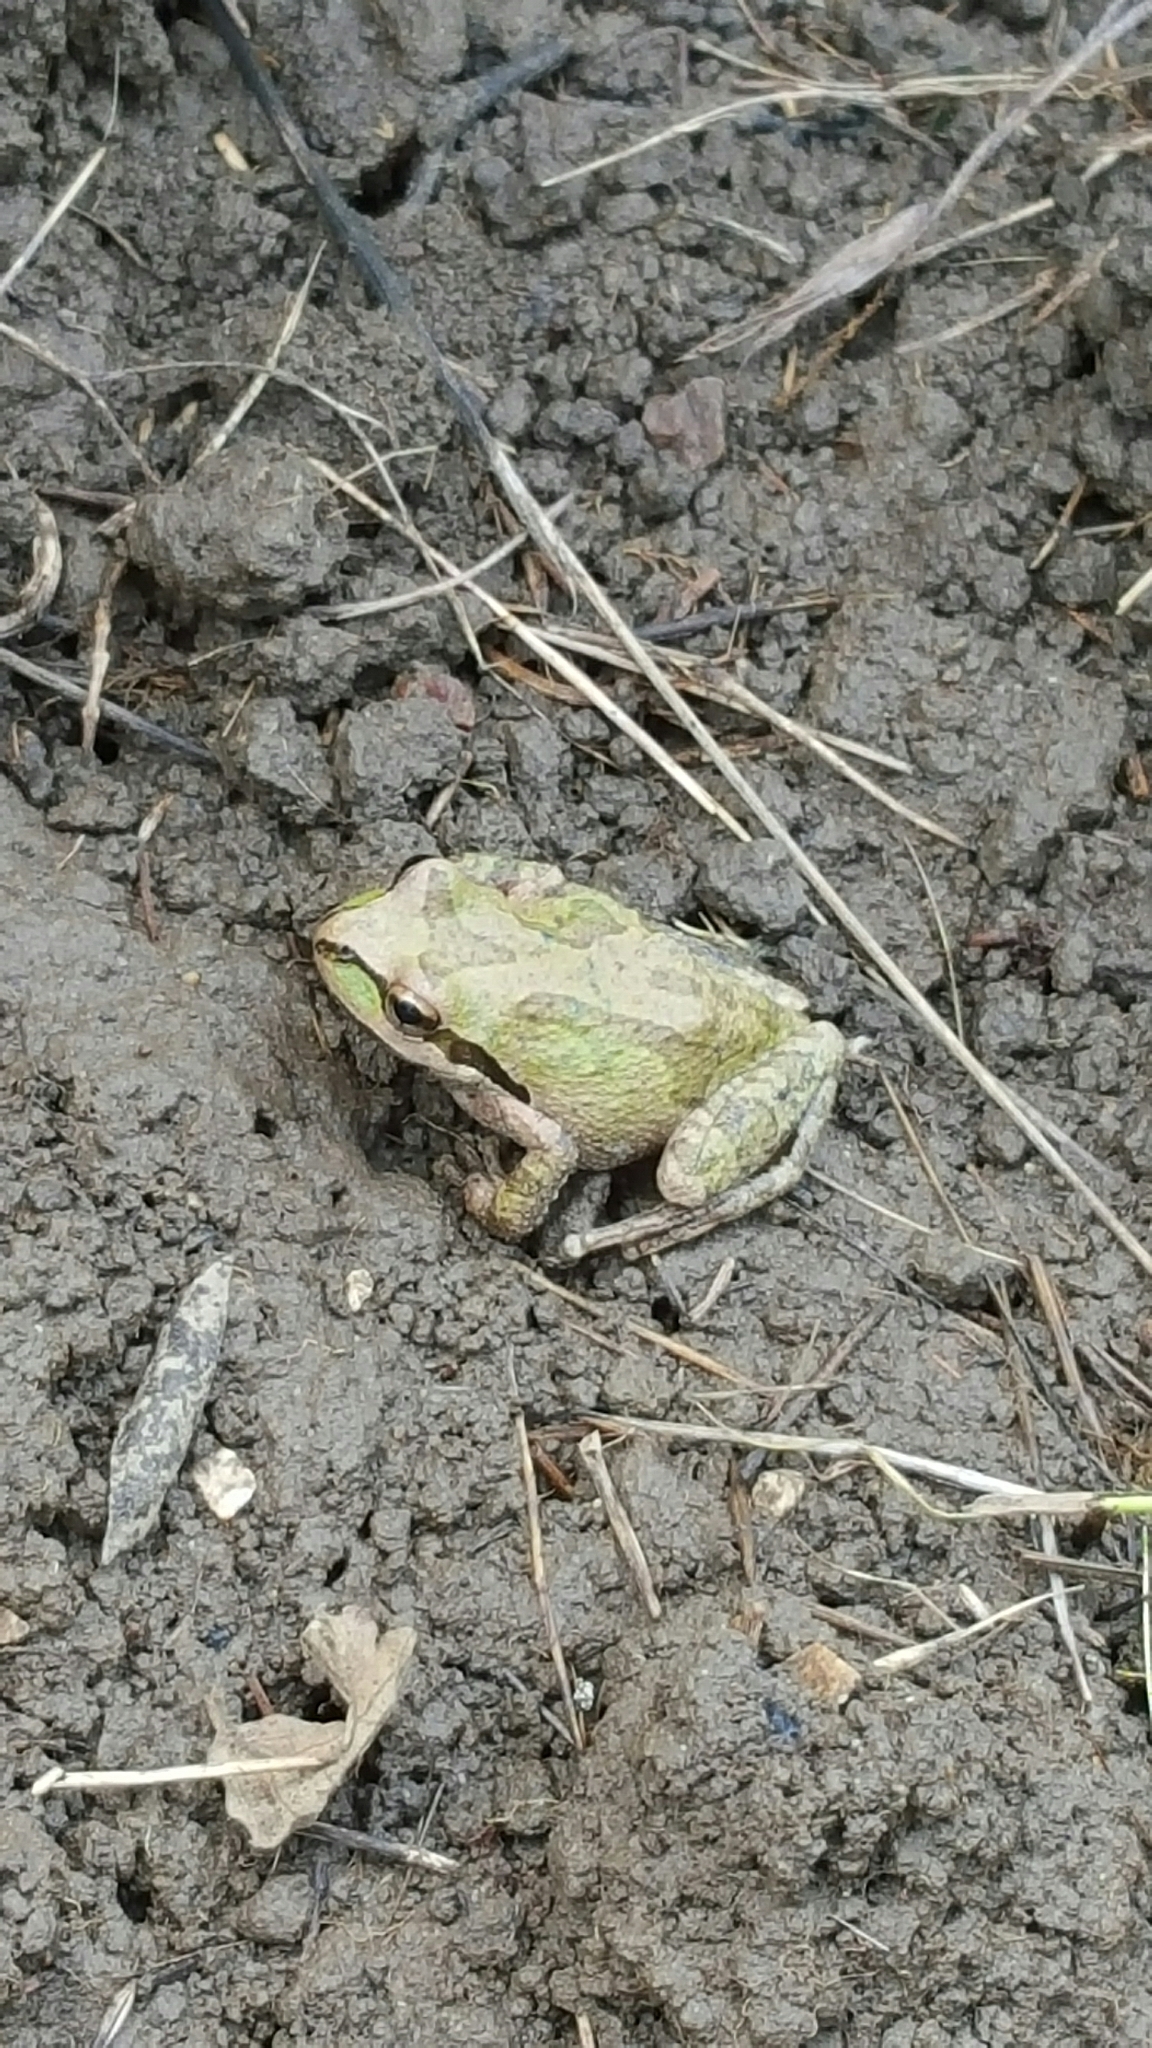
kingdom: Animalia
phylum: Chordata
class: Amphibia
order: Anura
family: Hylidae
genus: Pseudacris
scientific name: Pseudacris regilla
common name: Pacific chorus frog
